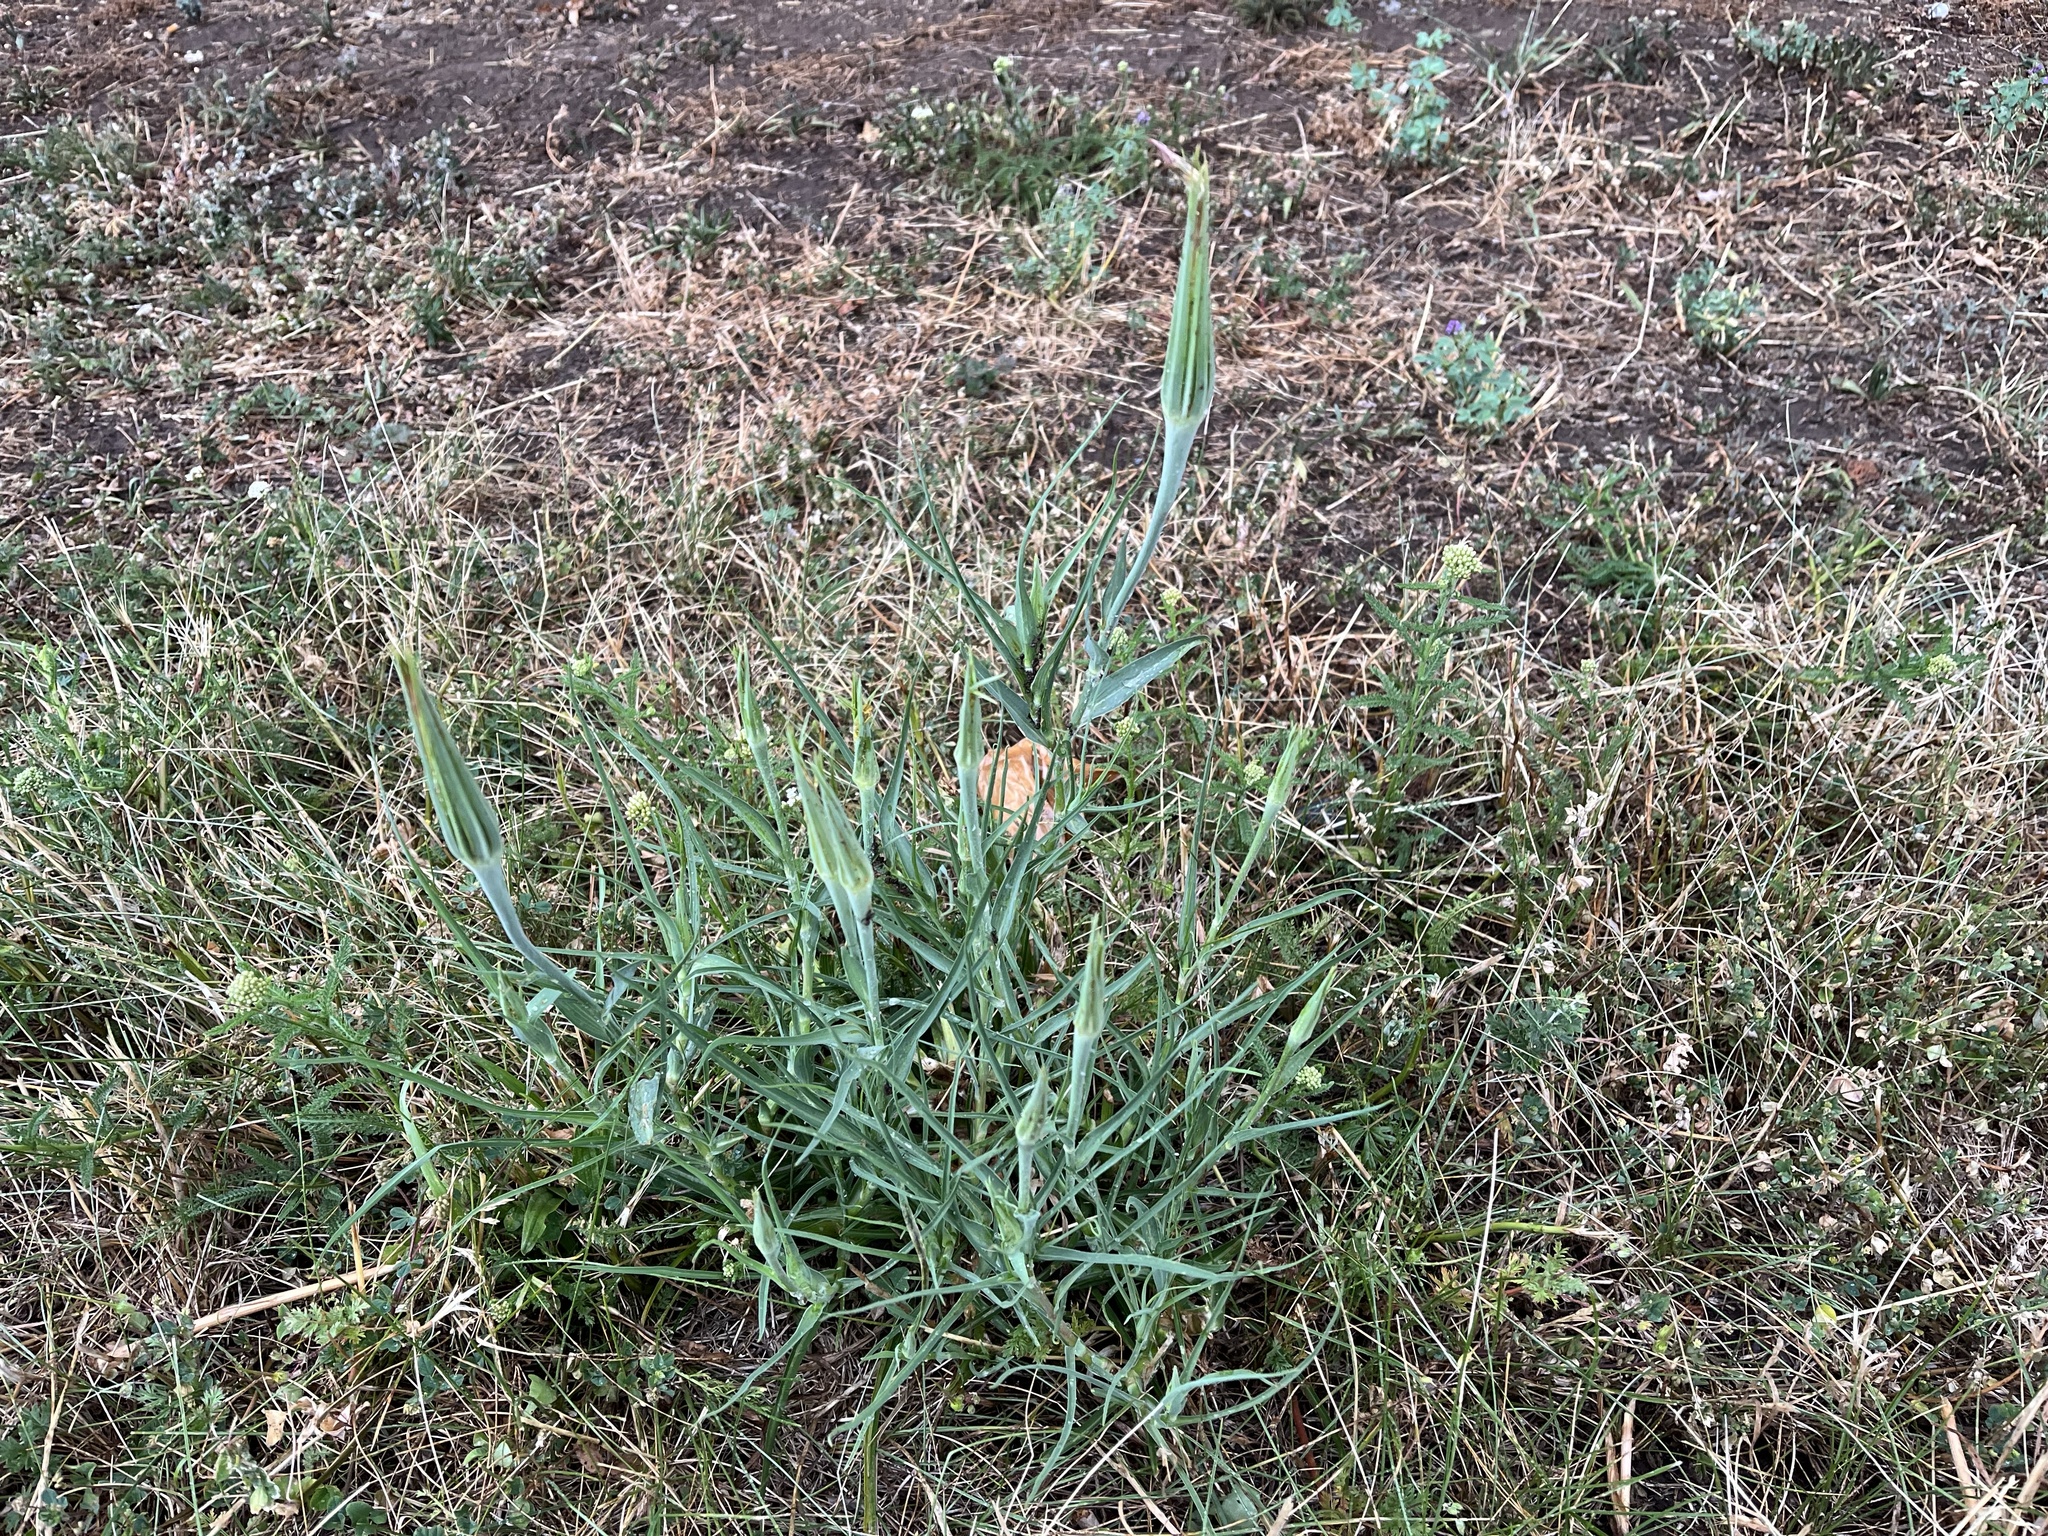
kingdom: Plantae
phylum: Tracheophyta
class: Magnoliopsida
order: Asterales
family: Asteraceae
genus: Tragopogon
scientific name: Tragopogon dubius
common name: Yellow salsify
